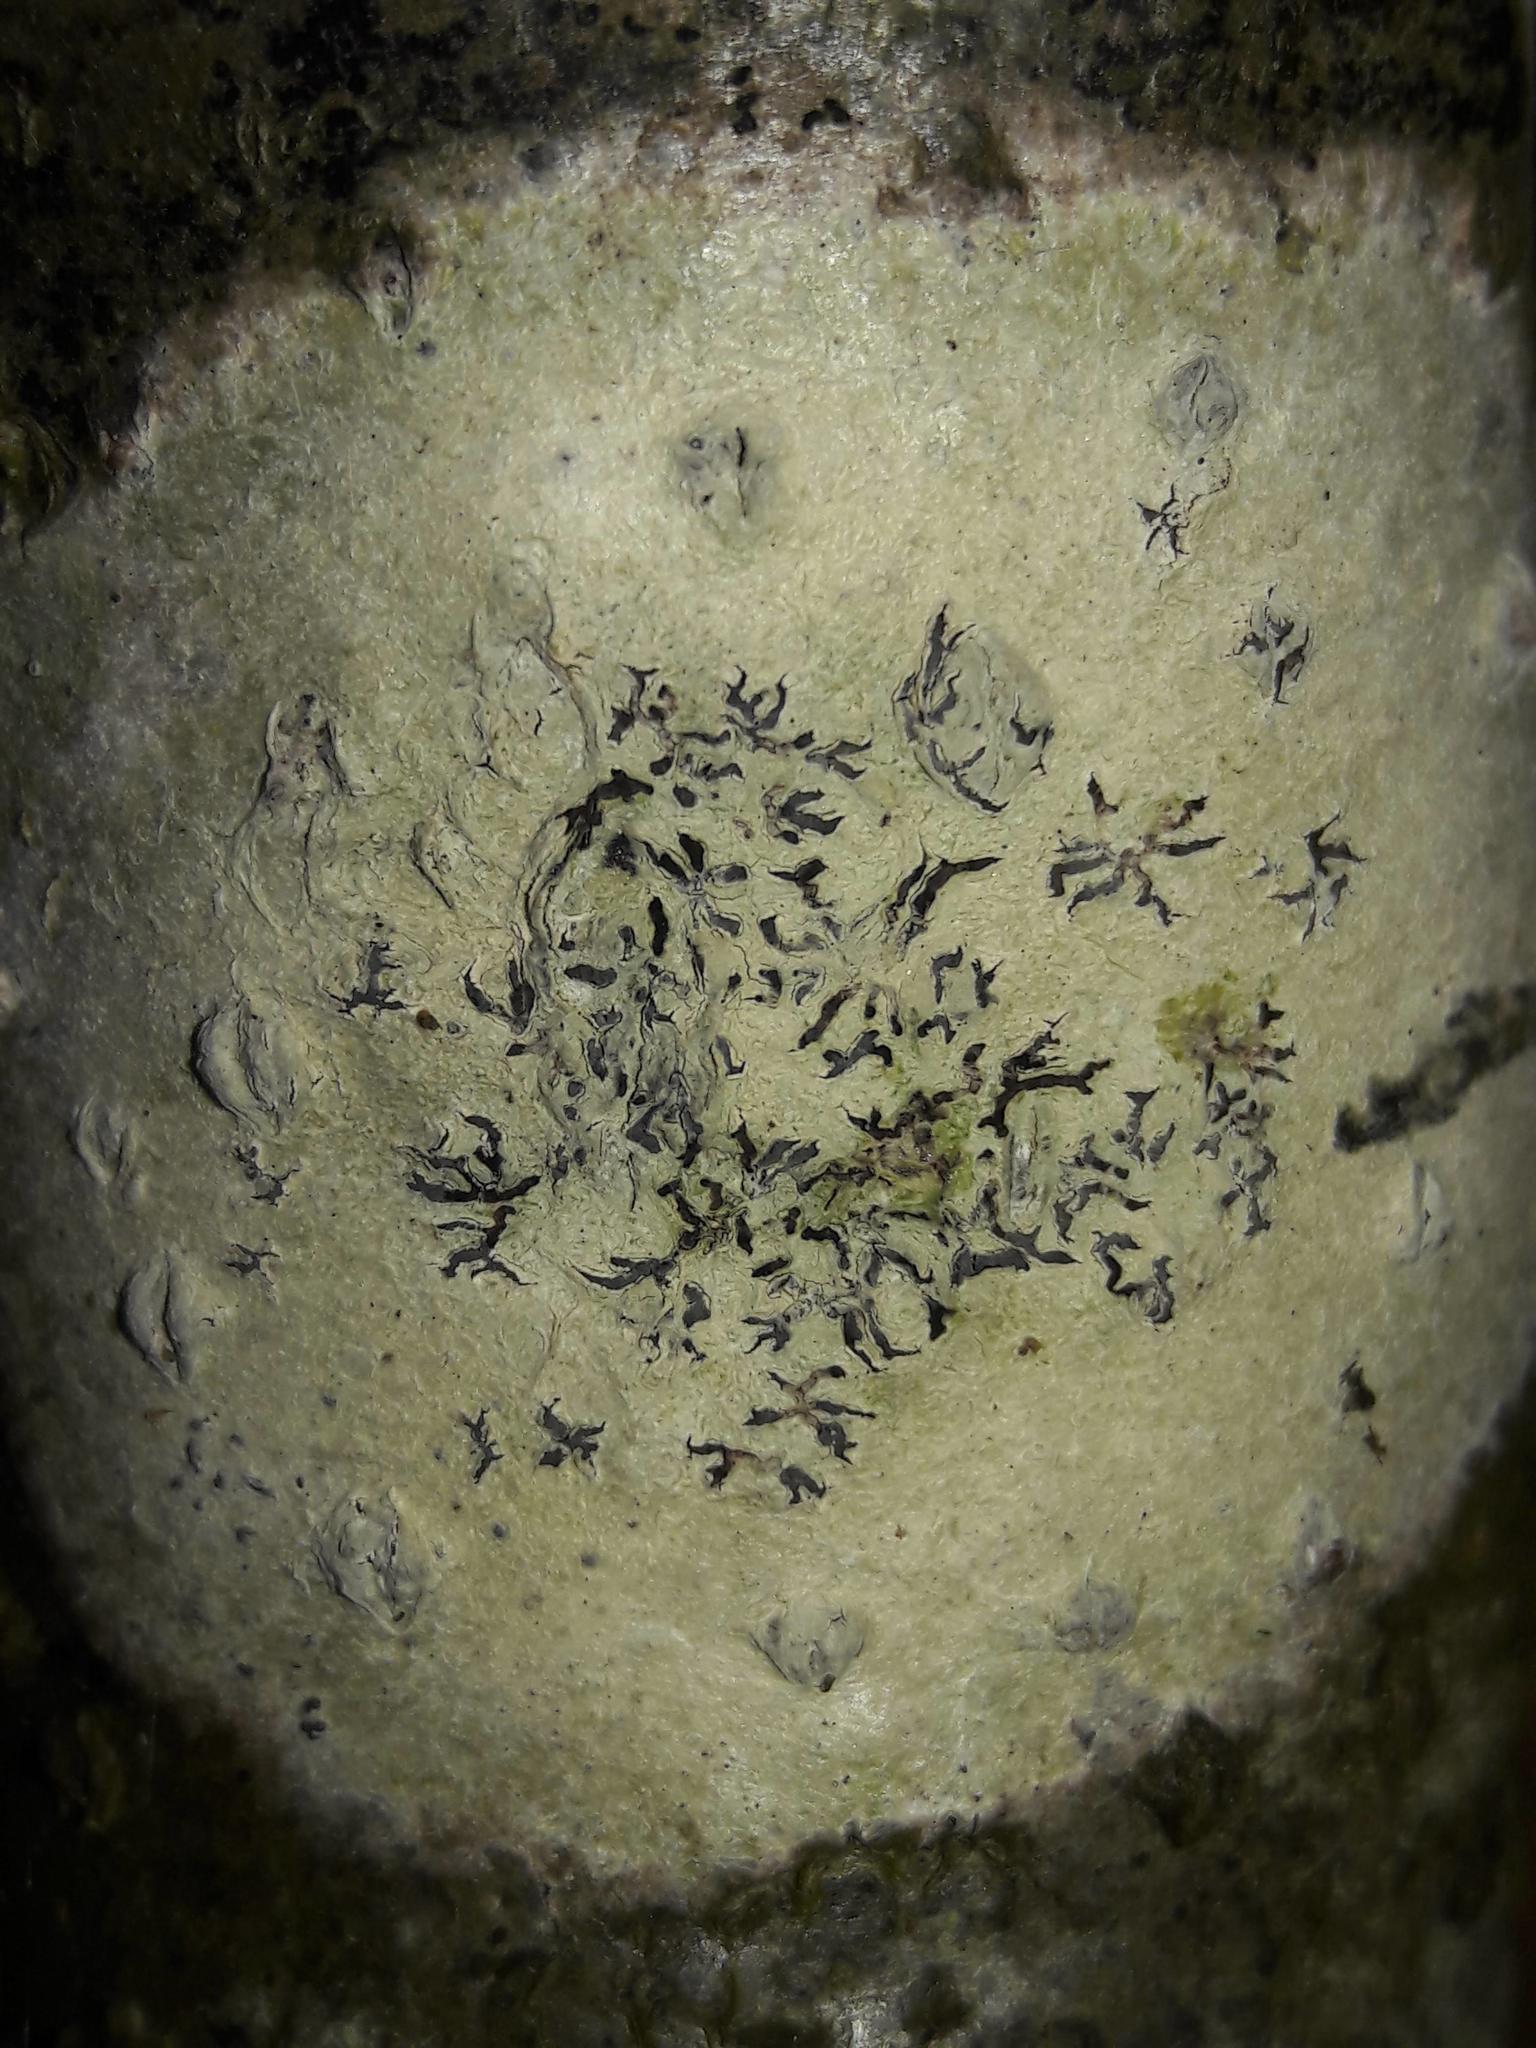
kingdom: Fungi
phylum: Ascomycota
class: Lecanoromycetes
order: Ostropales
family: Graphidaceae
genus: Phaeographis
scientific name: Phaeographis dendritica
